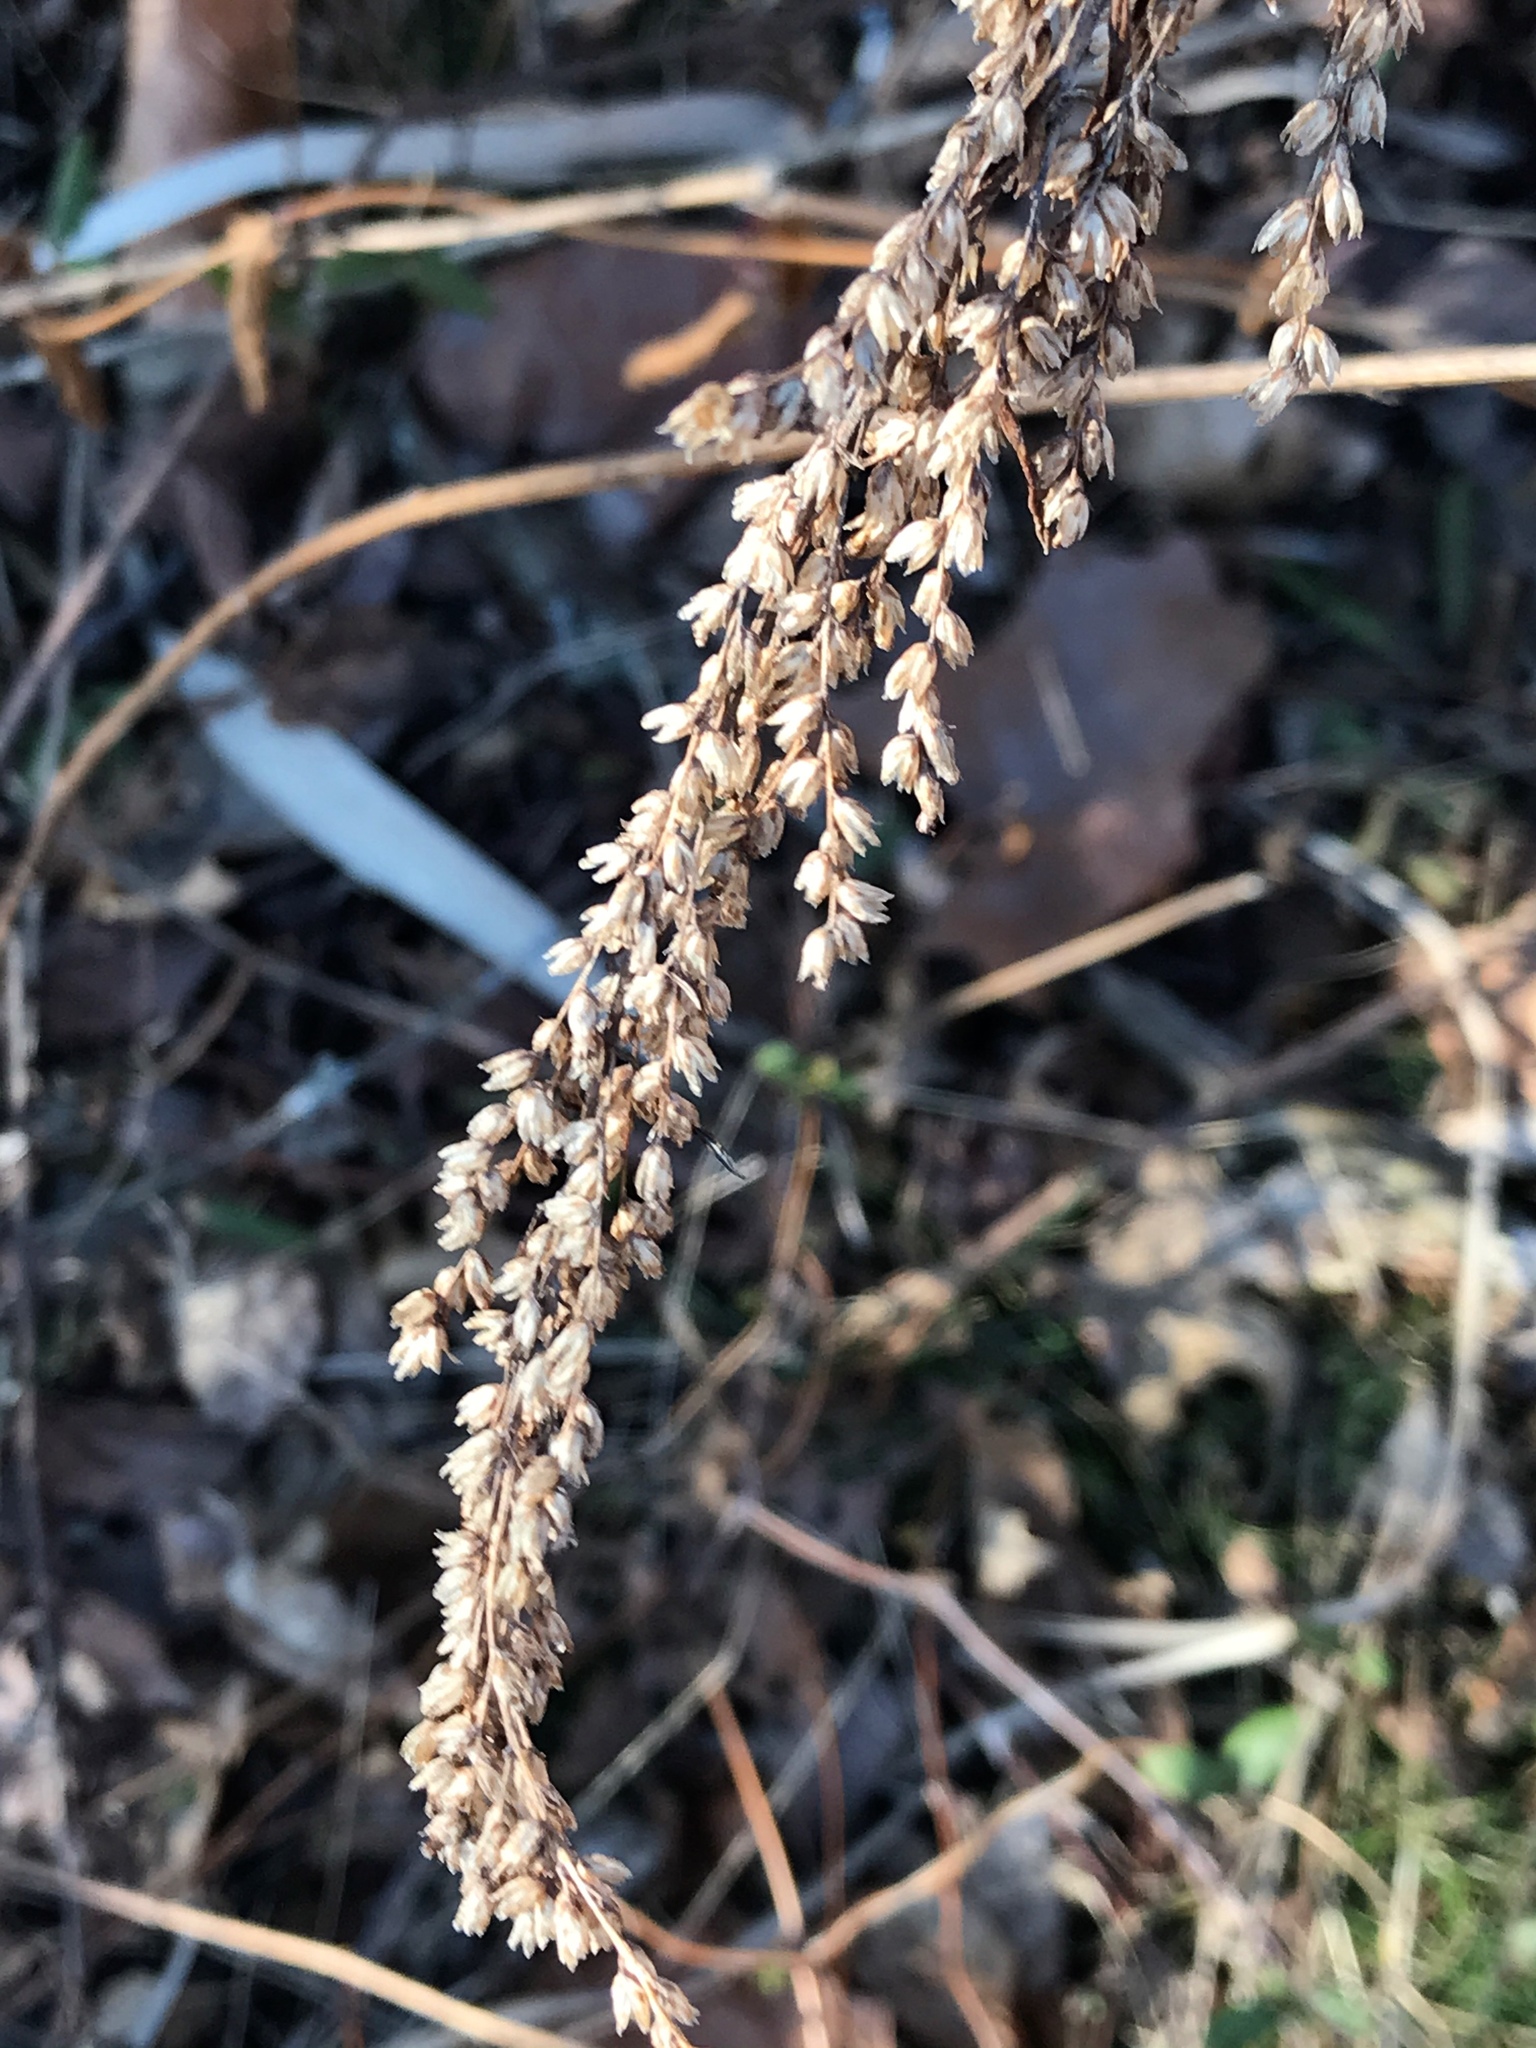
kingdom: Plantae
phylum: Tracheophyta
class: Magnoliopsida
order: Asterales
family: Asteraceae
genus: Artemisia
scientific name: Artemisia vulgaris
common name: Mugwort
